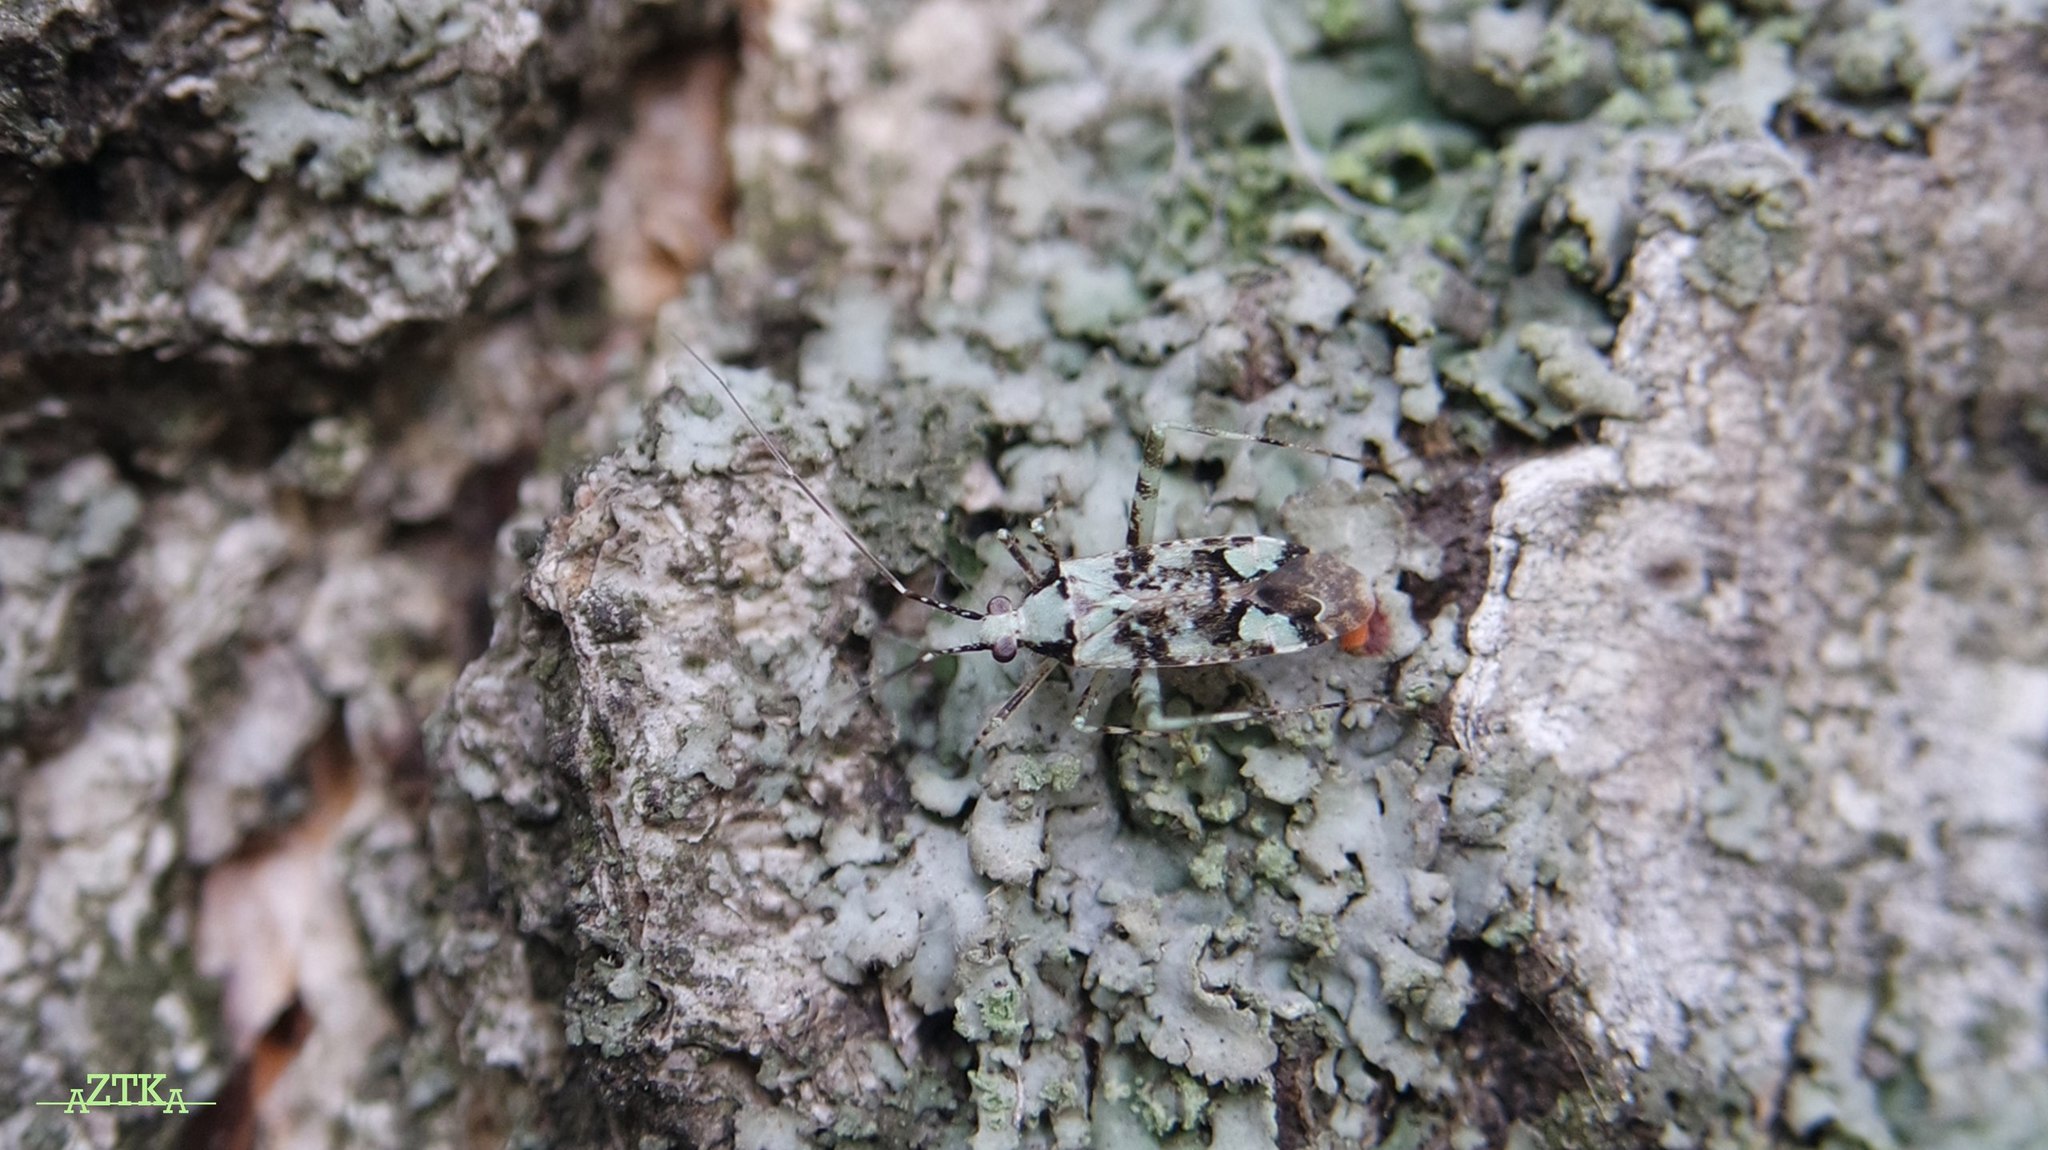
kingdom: Animalia
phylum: Arthropoda
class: Insecta
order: Hemiptera
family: Miridae
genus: Phytocoris
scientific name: Phytocoris tiliae
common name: Plant bug
